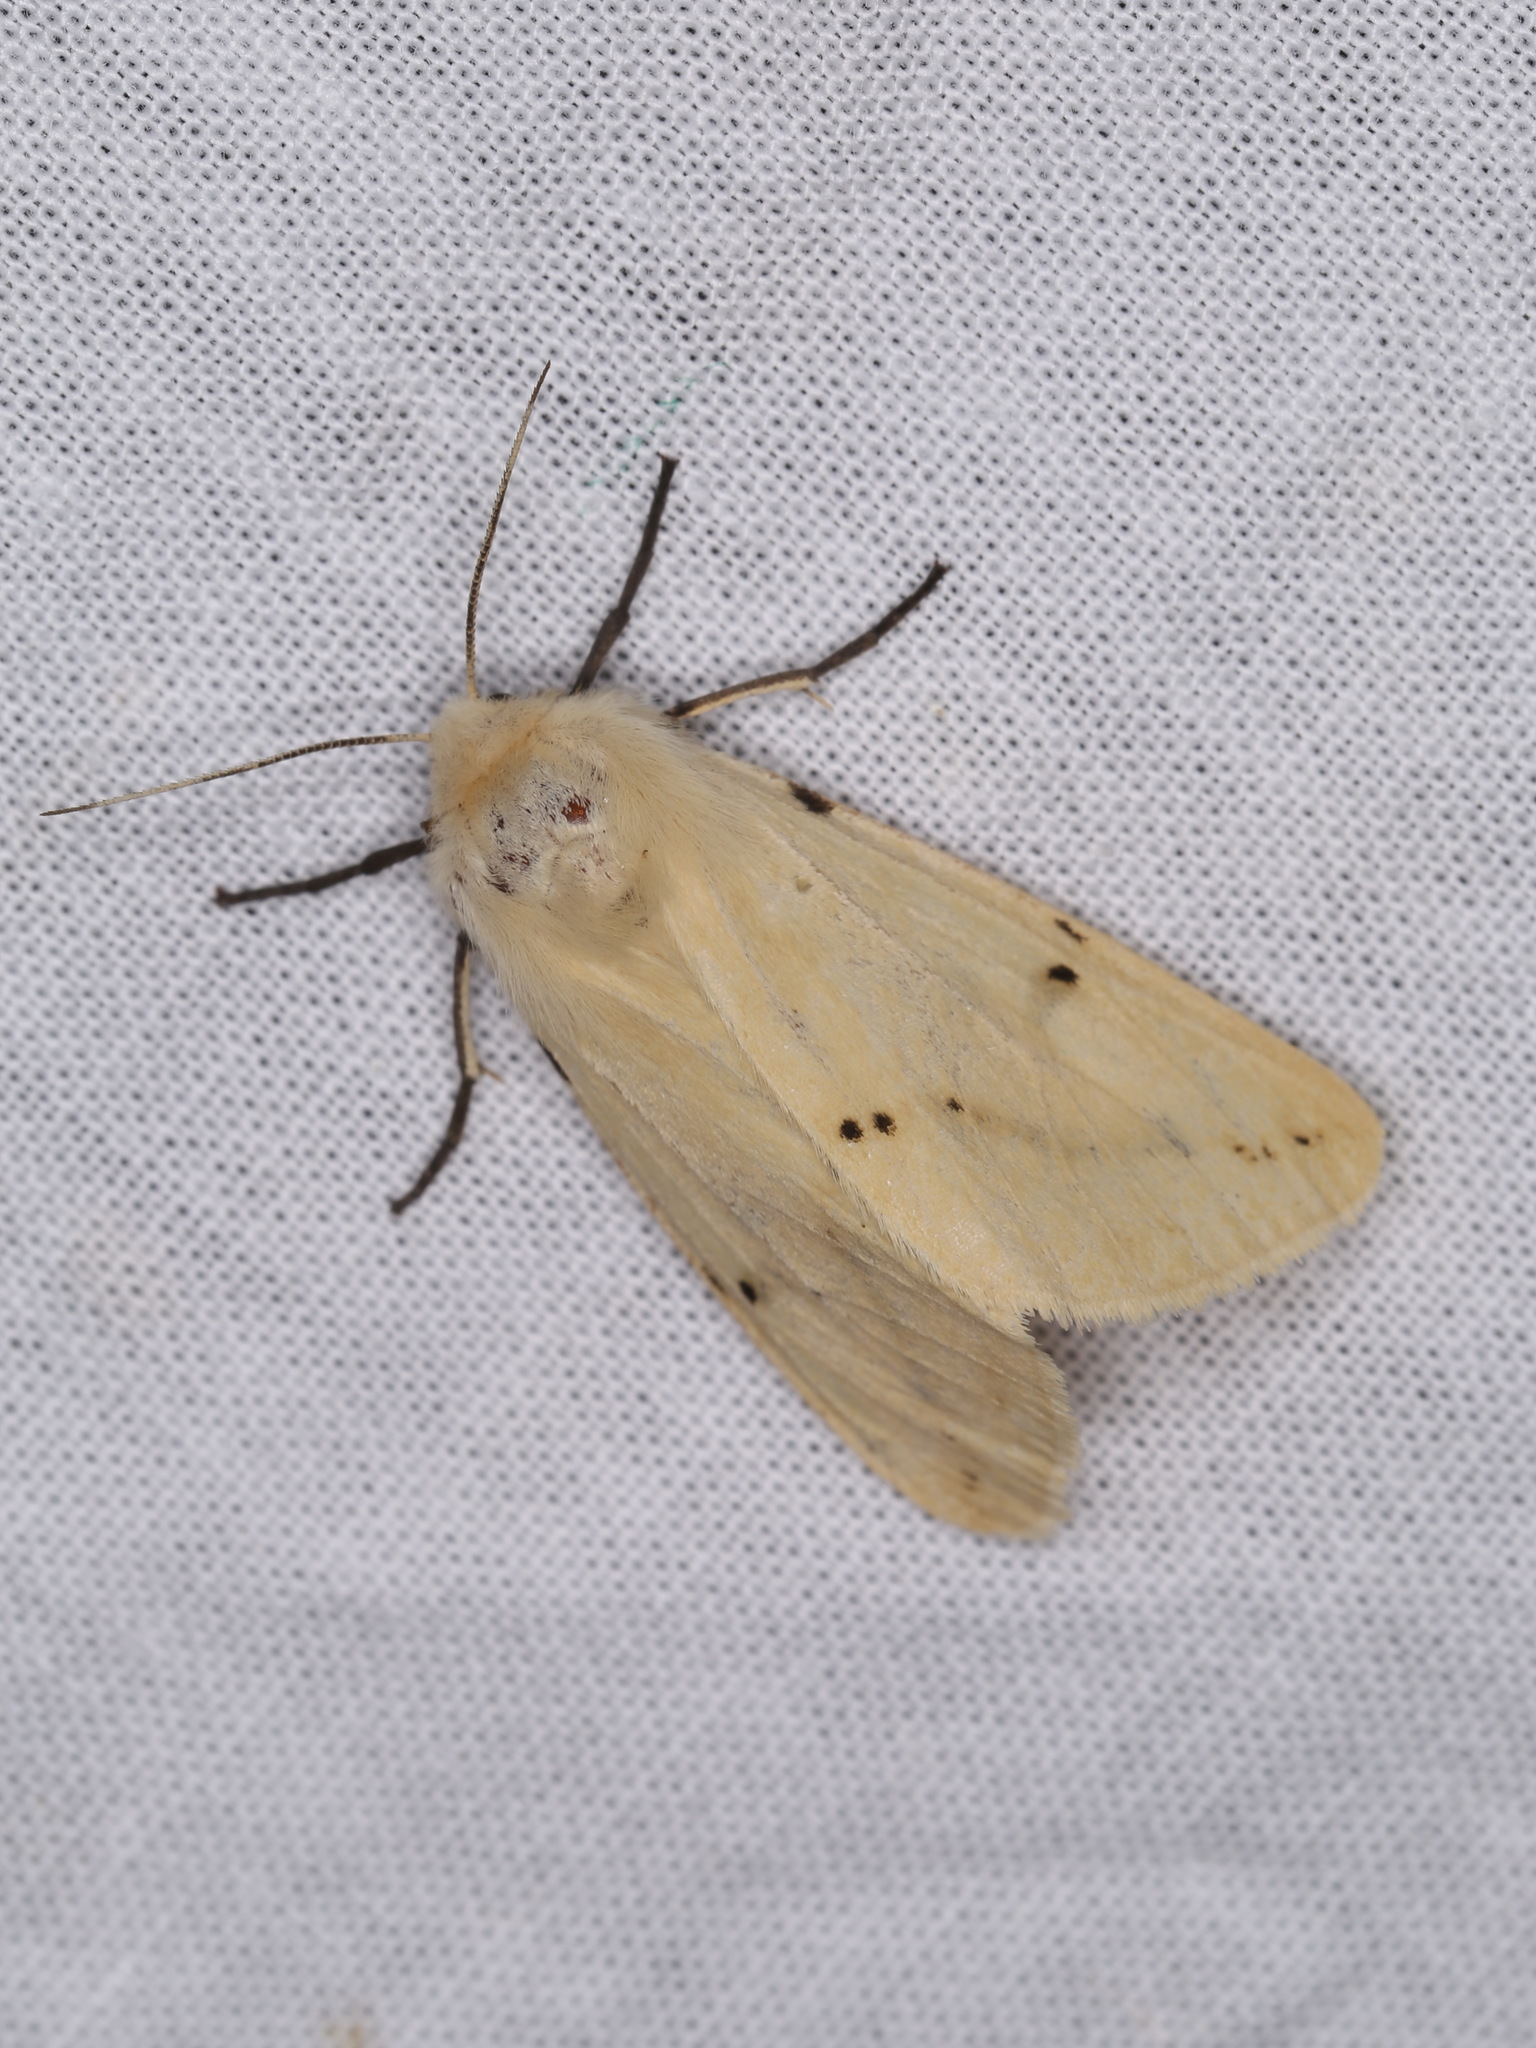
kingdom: Animalia
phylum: Arthropoda
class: Insecta
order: Lepidoptera
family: Erebidae
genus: Spilarctia
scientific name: Spilarctia lutea
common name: Buff ermine
